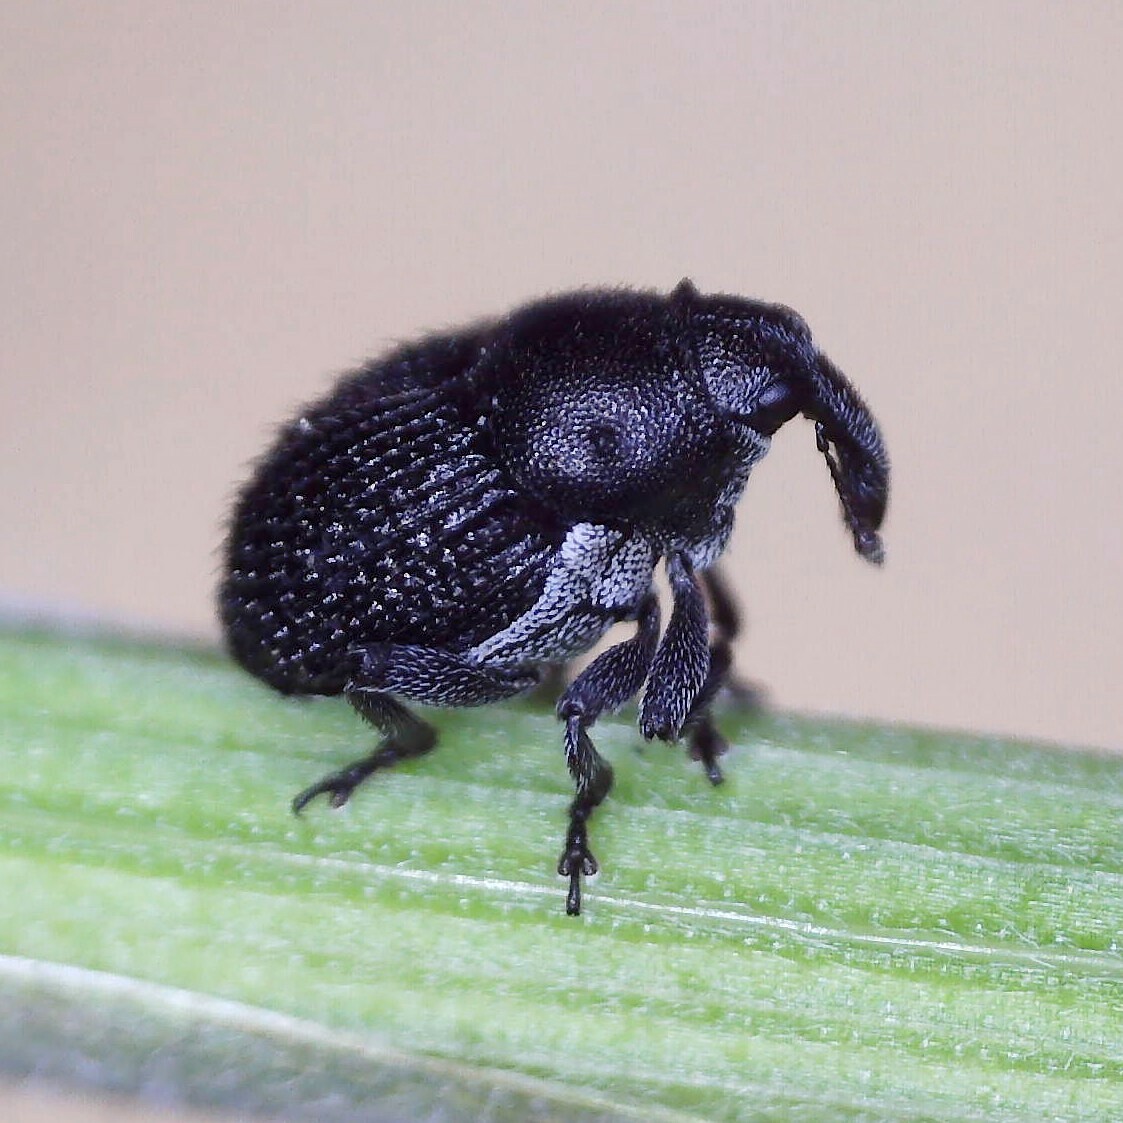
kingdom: Animalia
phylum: Arthropoda
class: Insecta
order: Coleoptera
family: Curculionidae
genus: Zacladus
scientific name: Zacladus exiguus
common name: Bloody cranesbill weevil
